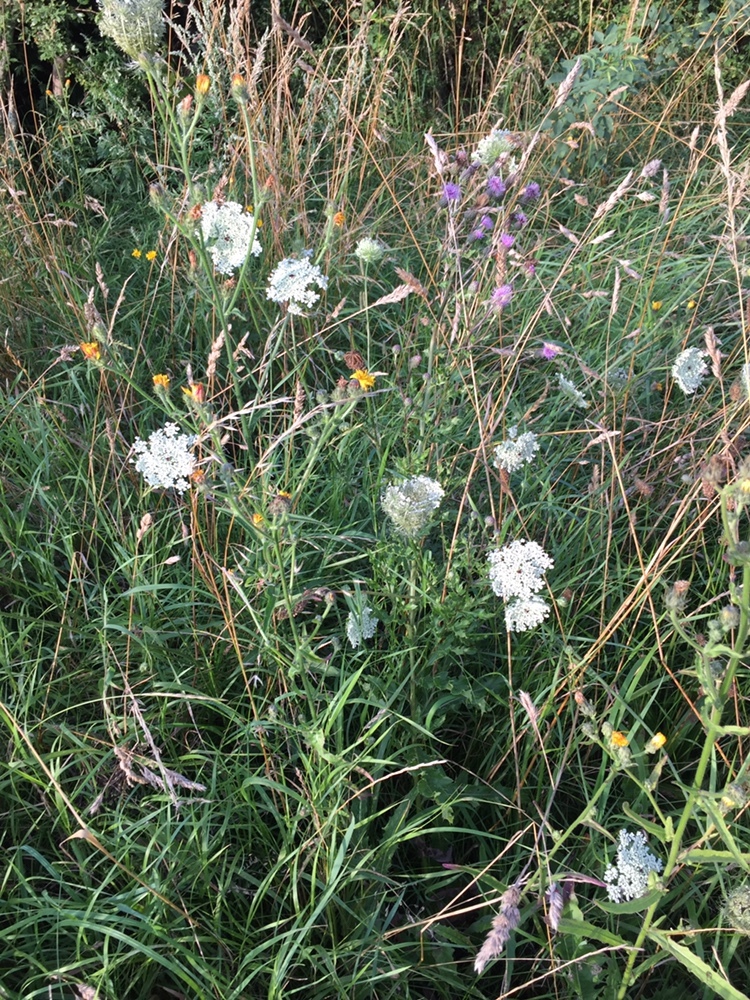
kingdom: Plantae
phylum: Tracheophyta
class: Magnoliopsida
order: Apiales
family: Apiaceae
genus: Daucus
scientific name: Daucus carota
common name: Wild carrot
